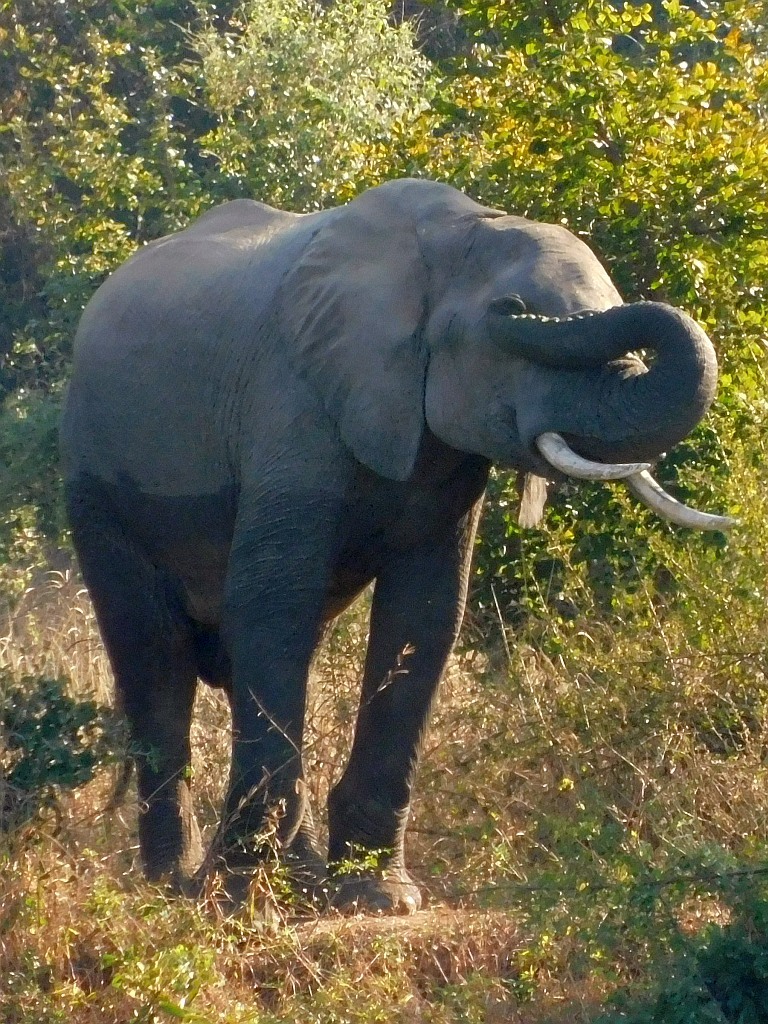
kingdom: Animalia
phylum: Chordata
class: Mammalia
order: Proboscidea
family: Elephantidae
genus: Loxodonta
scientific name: Loxodonta africana
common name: African elephant
